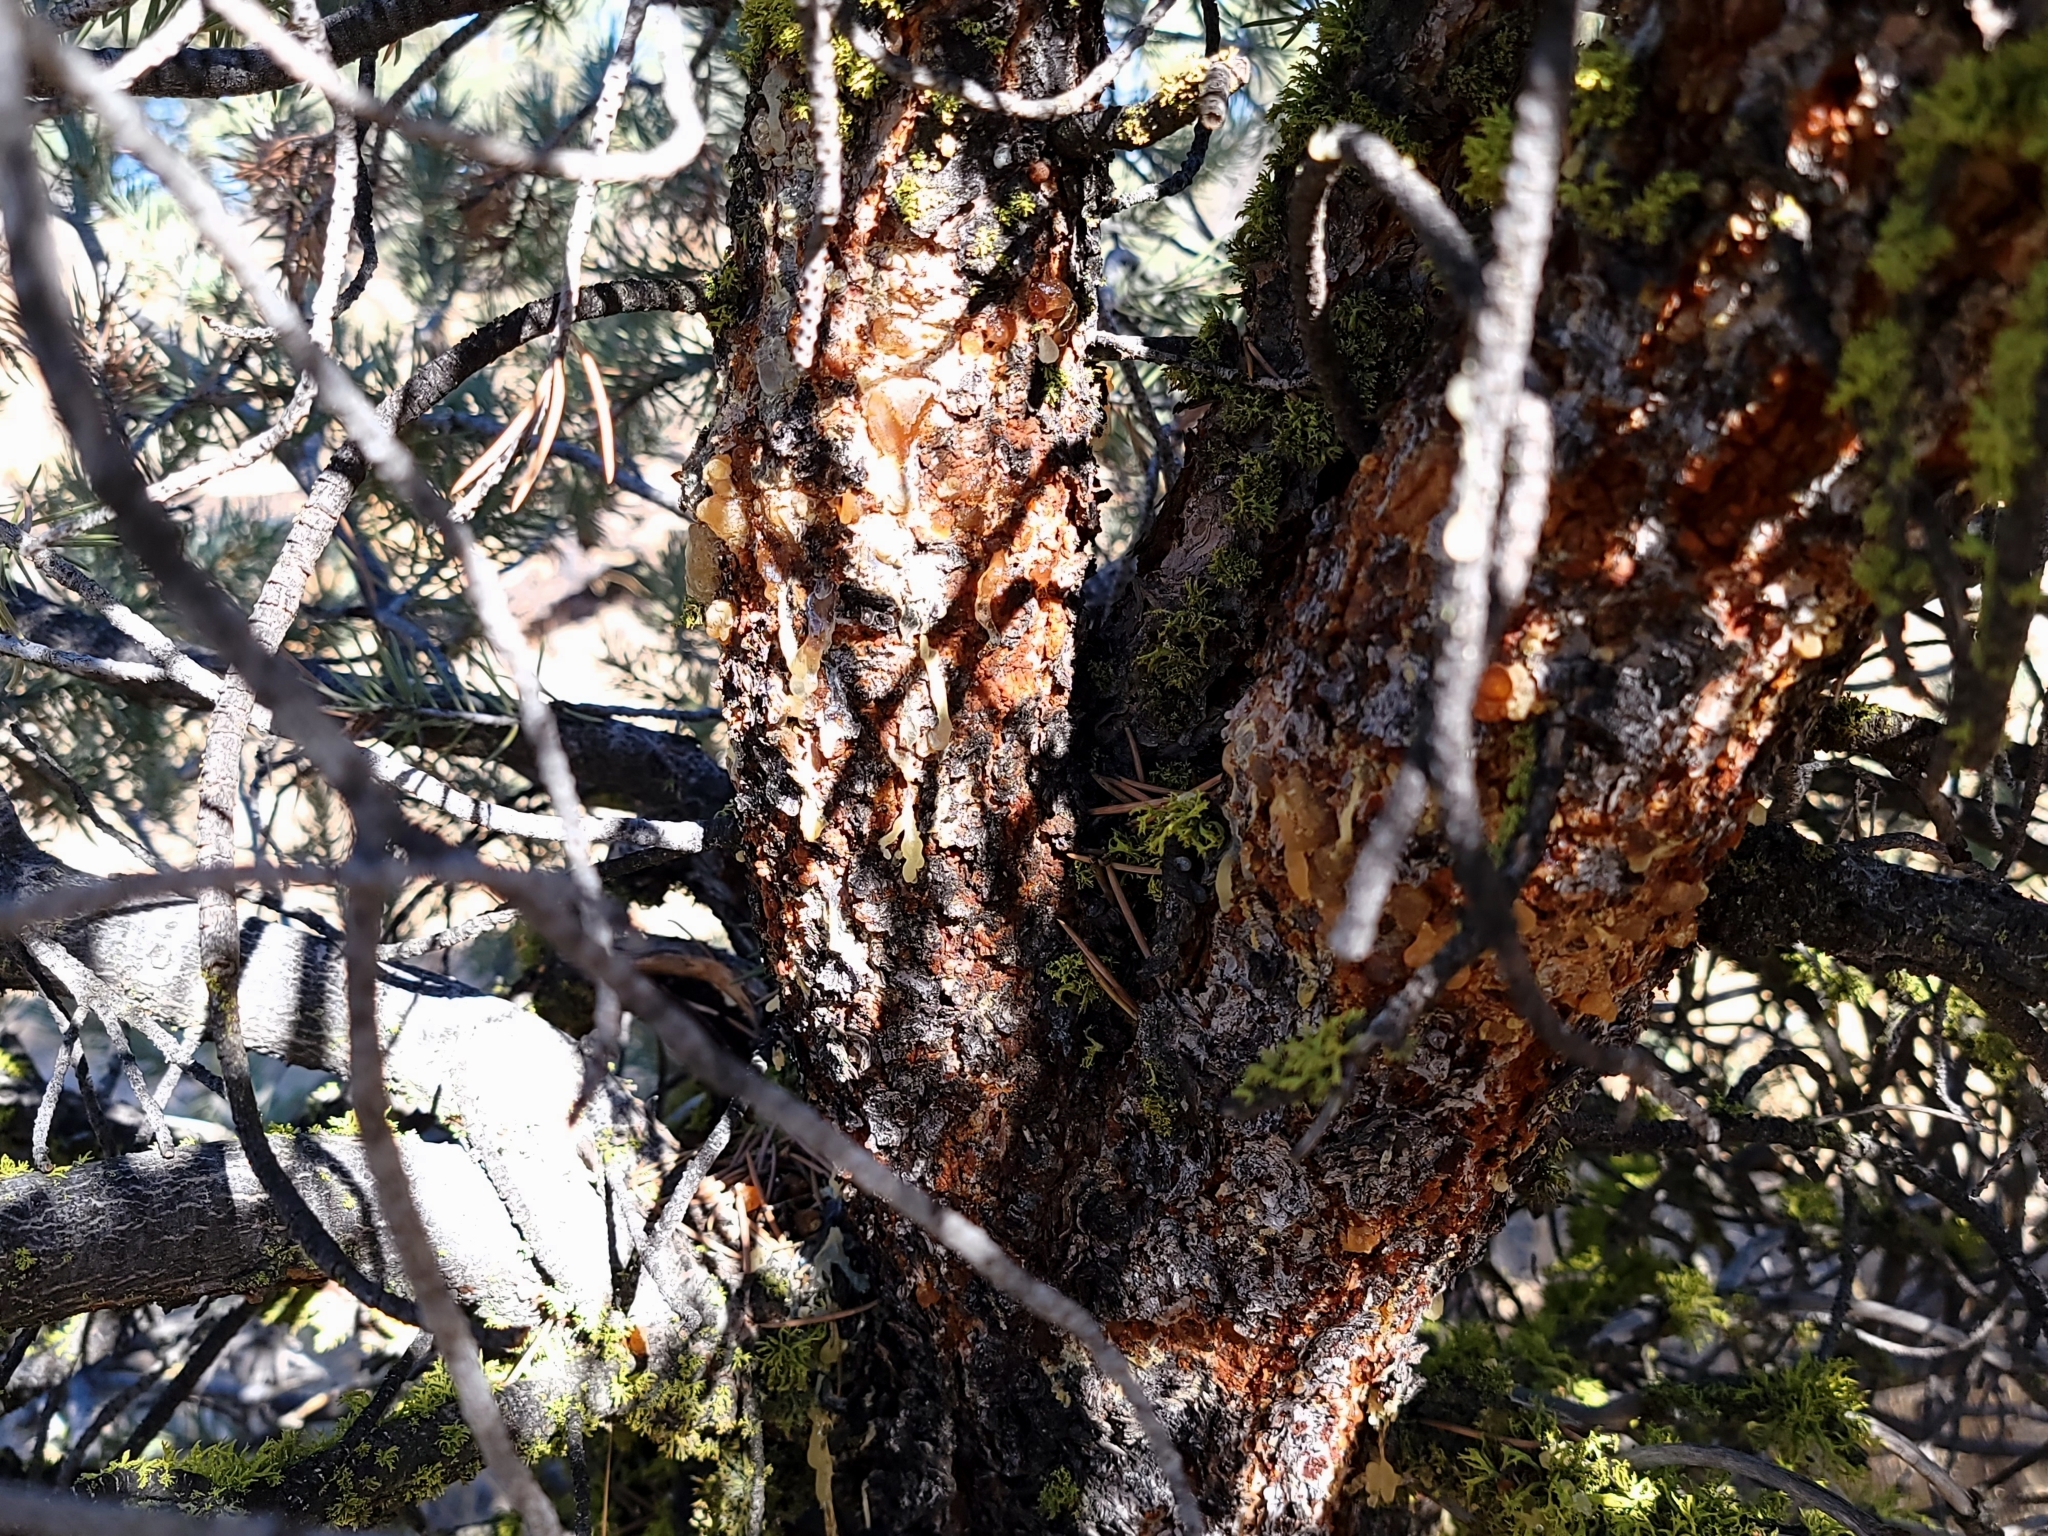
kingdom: Plantae
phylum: Tracheophyta
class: Pinopsida
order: Pinales
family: Pinaceae
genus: Pinus
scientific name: Pinus monophylla
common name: One-leaved nut pine
